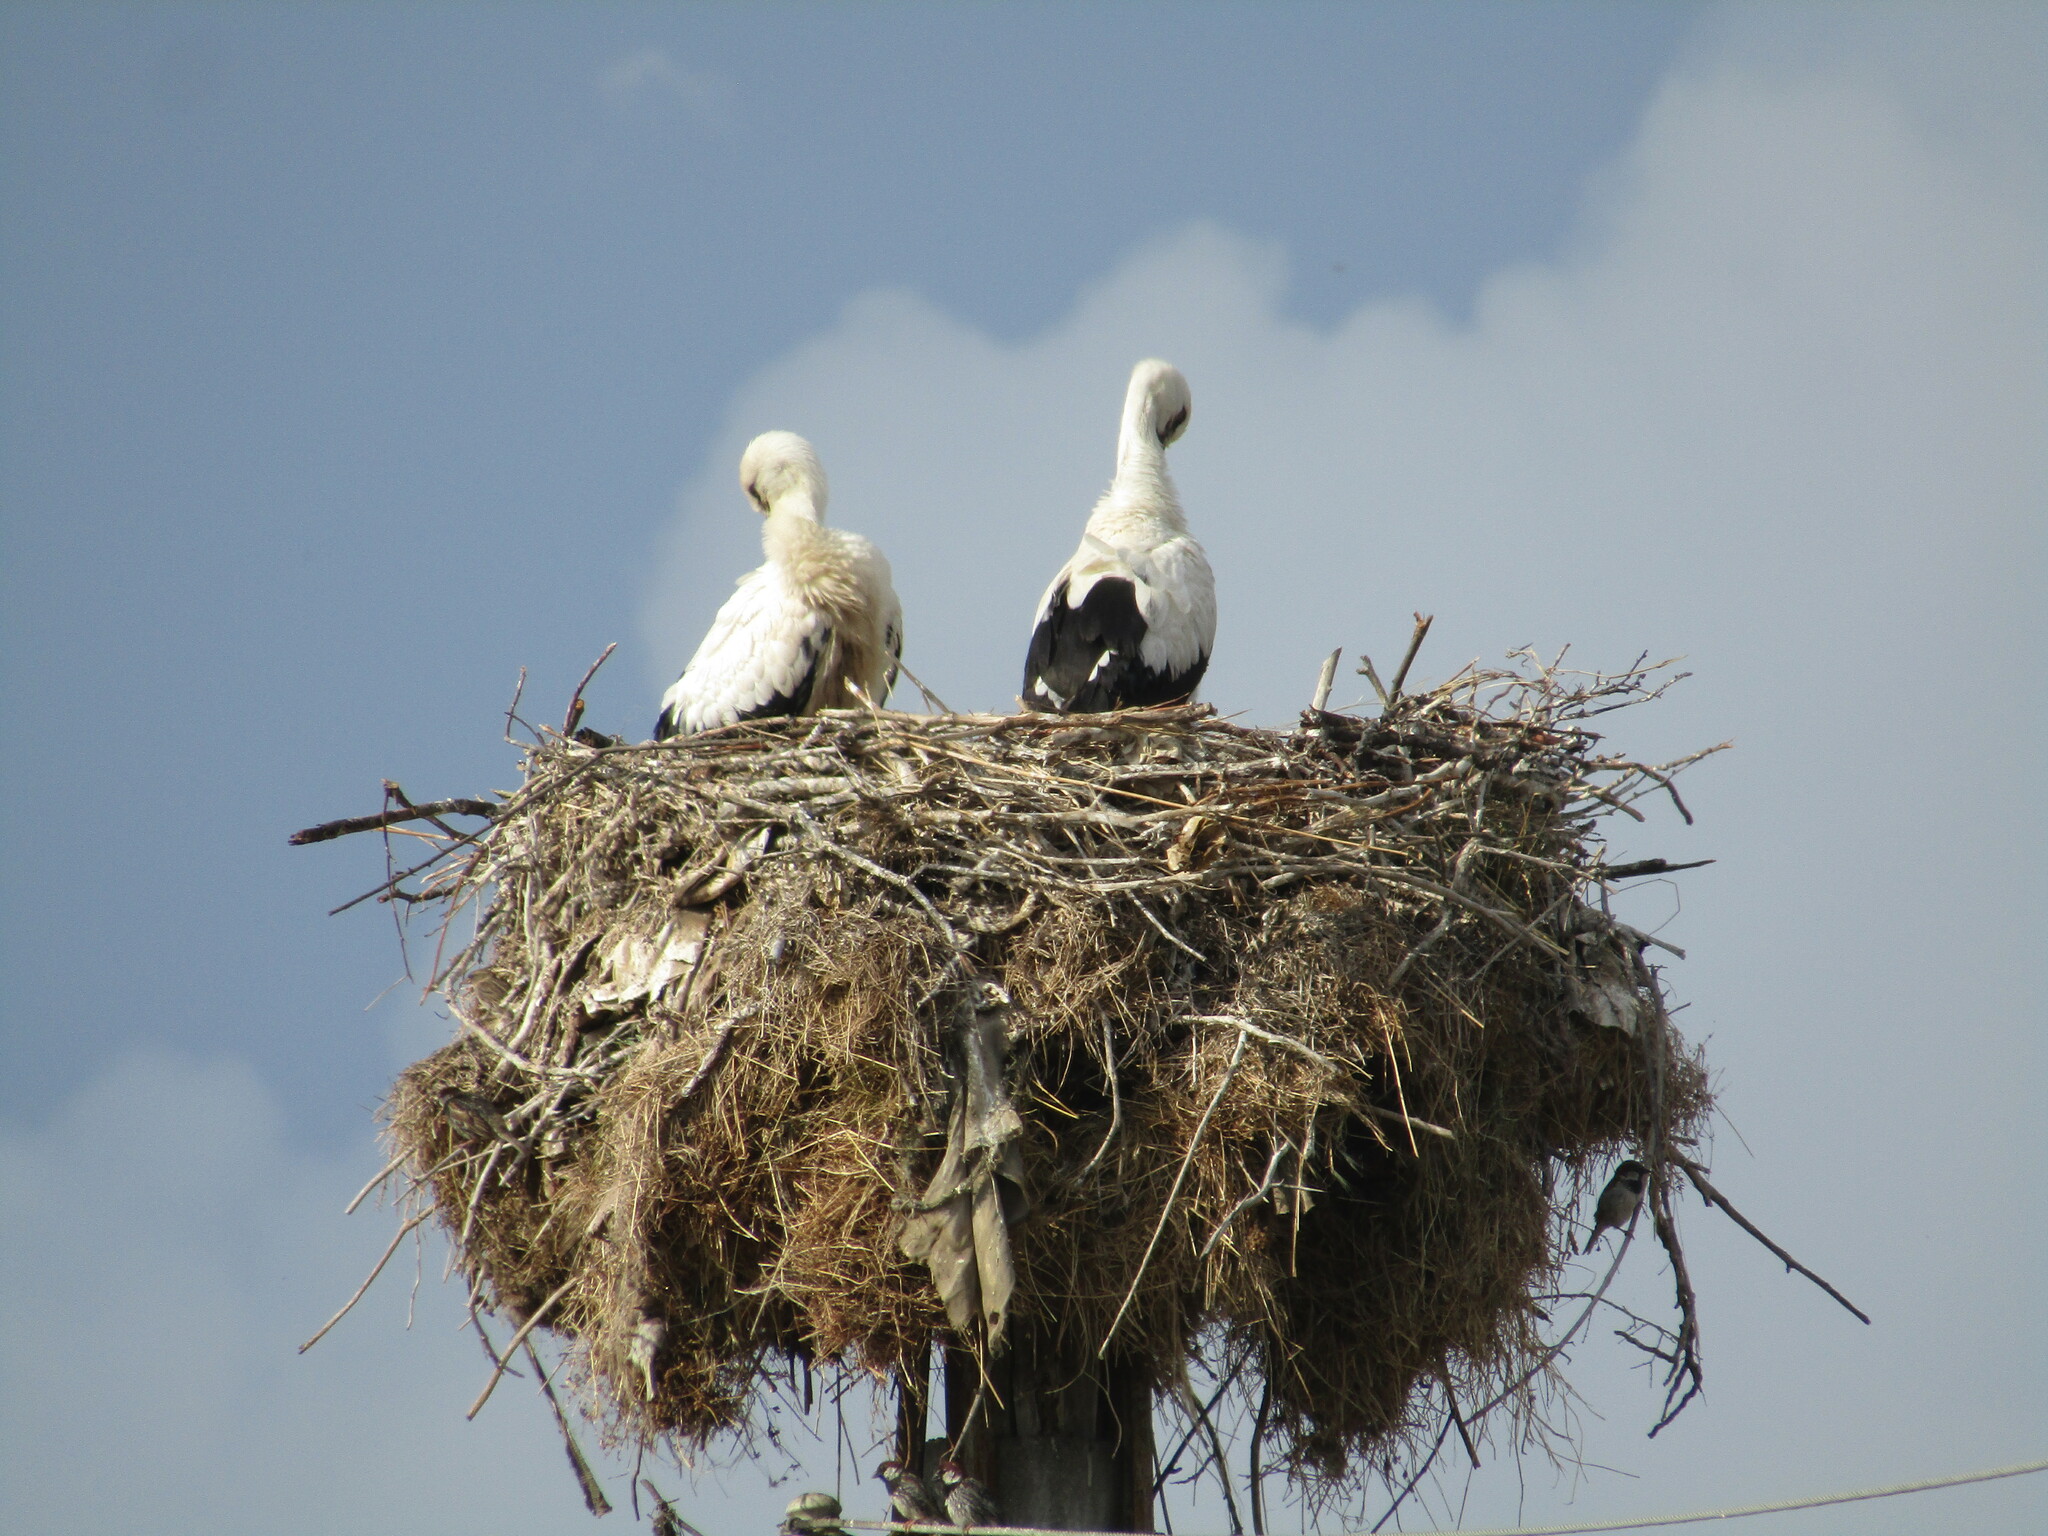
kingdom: Animalia
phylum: Chordata
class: Aves
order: Ciconiiformes
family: Ciconiidae
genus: Ciconia
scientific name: Ciconia ciconia
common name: White stork
